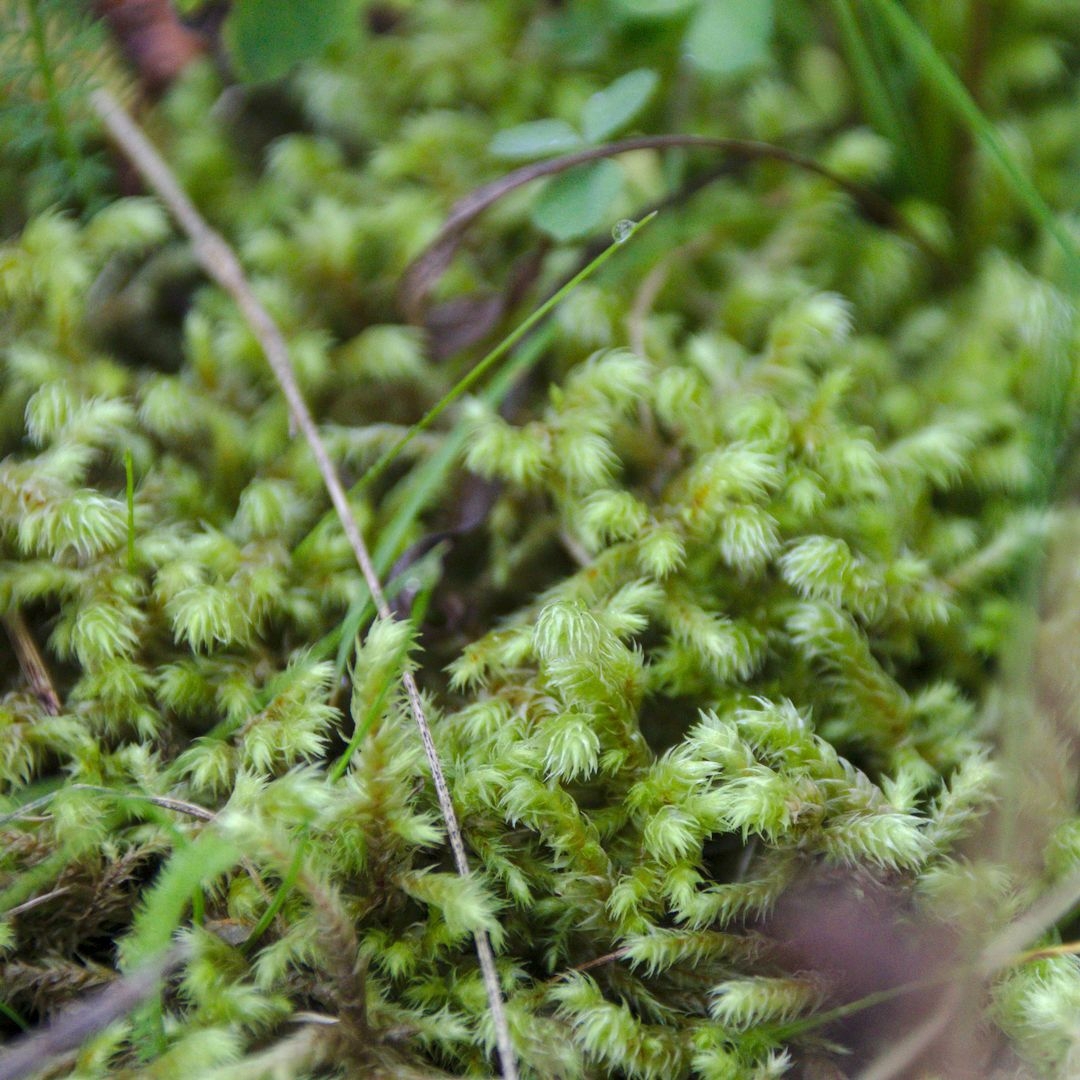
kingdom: Plantae
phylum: Bryophyta
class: Bryopsida
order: Hypnales
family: Hylocomiaceae
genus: Hylocomiadelphus
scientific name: Hylocomiadelphus triquetrus
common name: Rough goose neck moss
